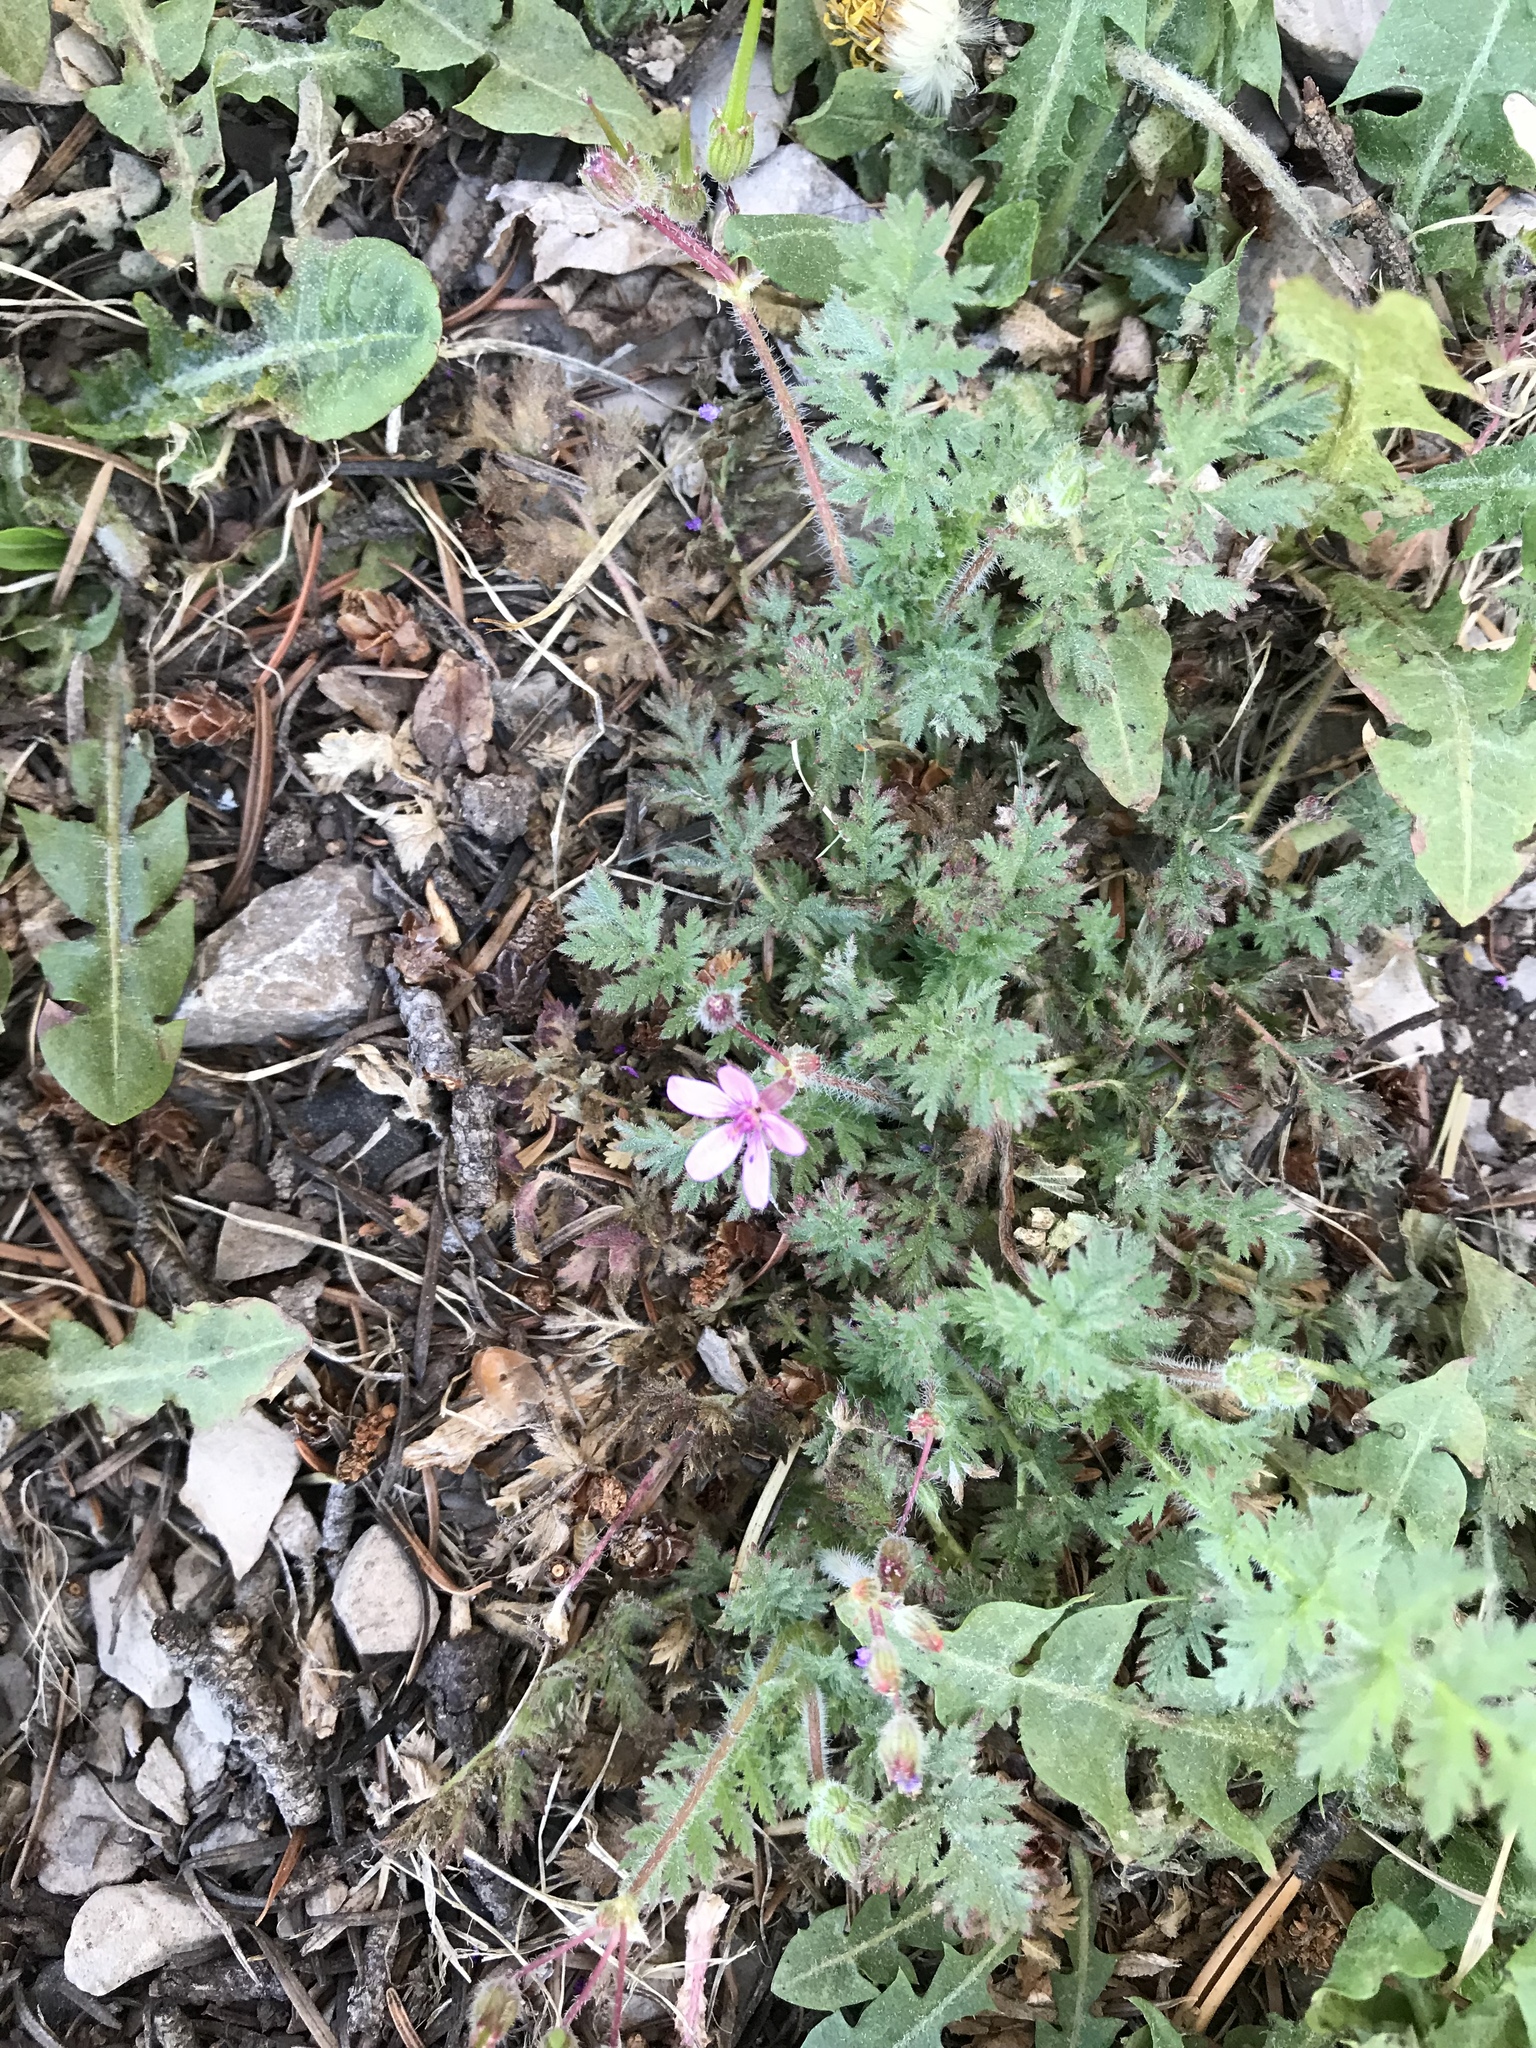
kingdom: Plantae
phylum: Tracheophyta
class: Magnoliopsida
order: Geraniales
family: Geraniaceae
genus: Erodium
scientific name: Erodium cicutarium
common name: Common stork's-bill
